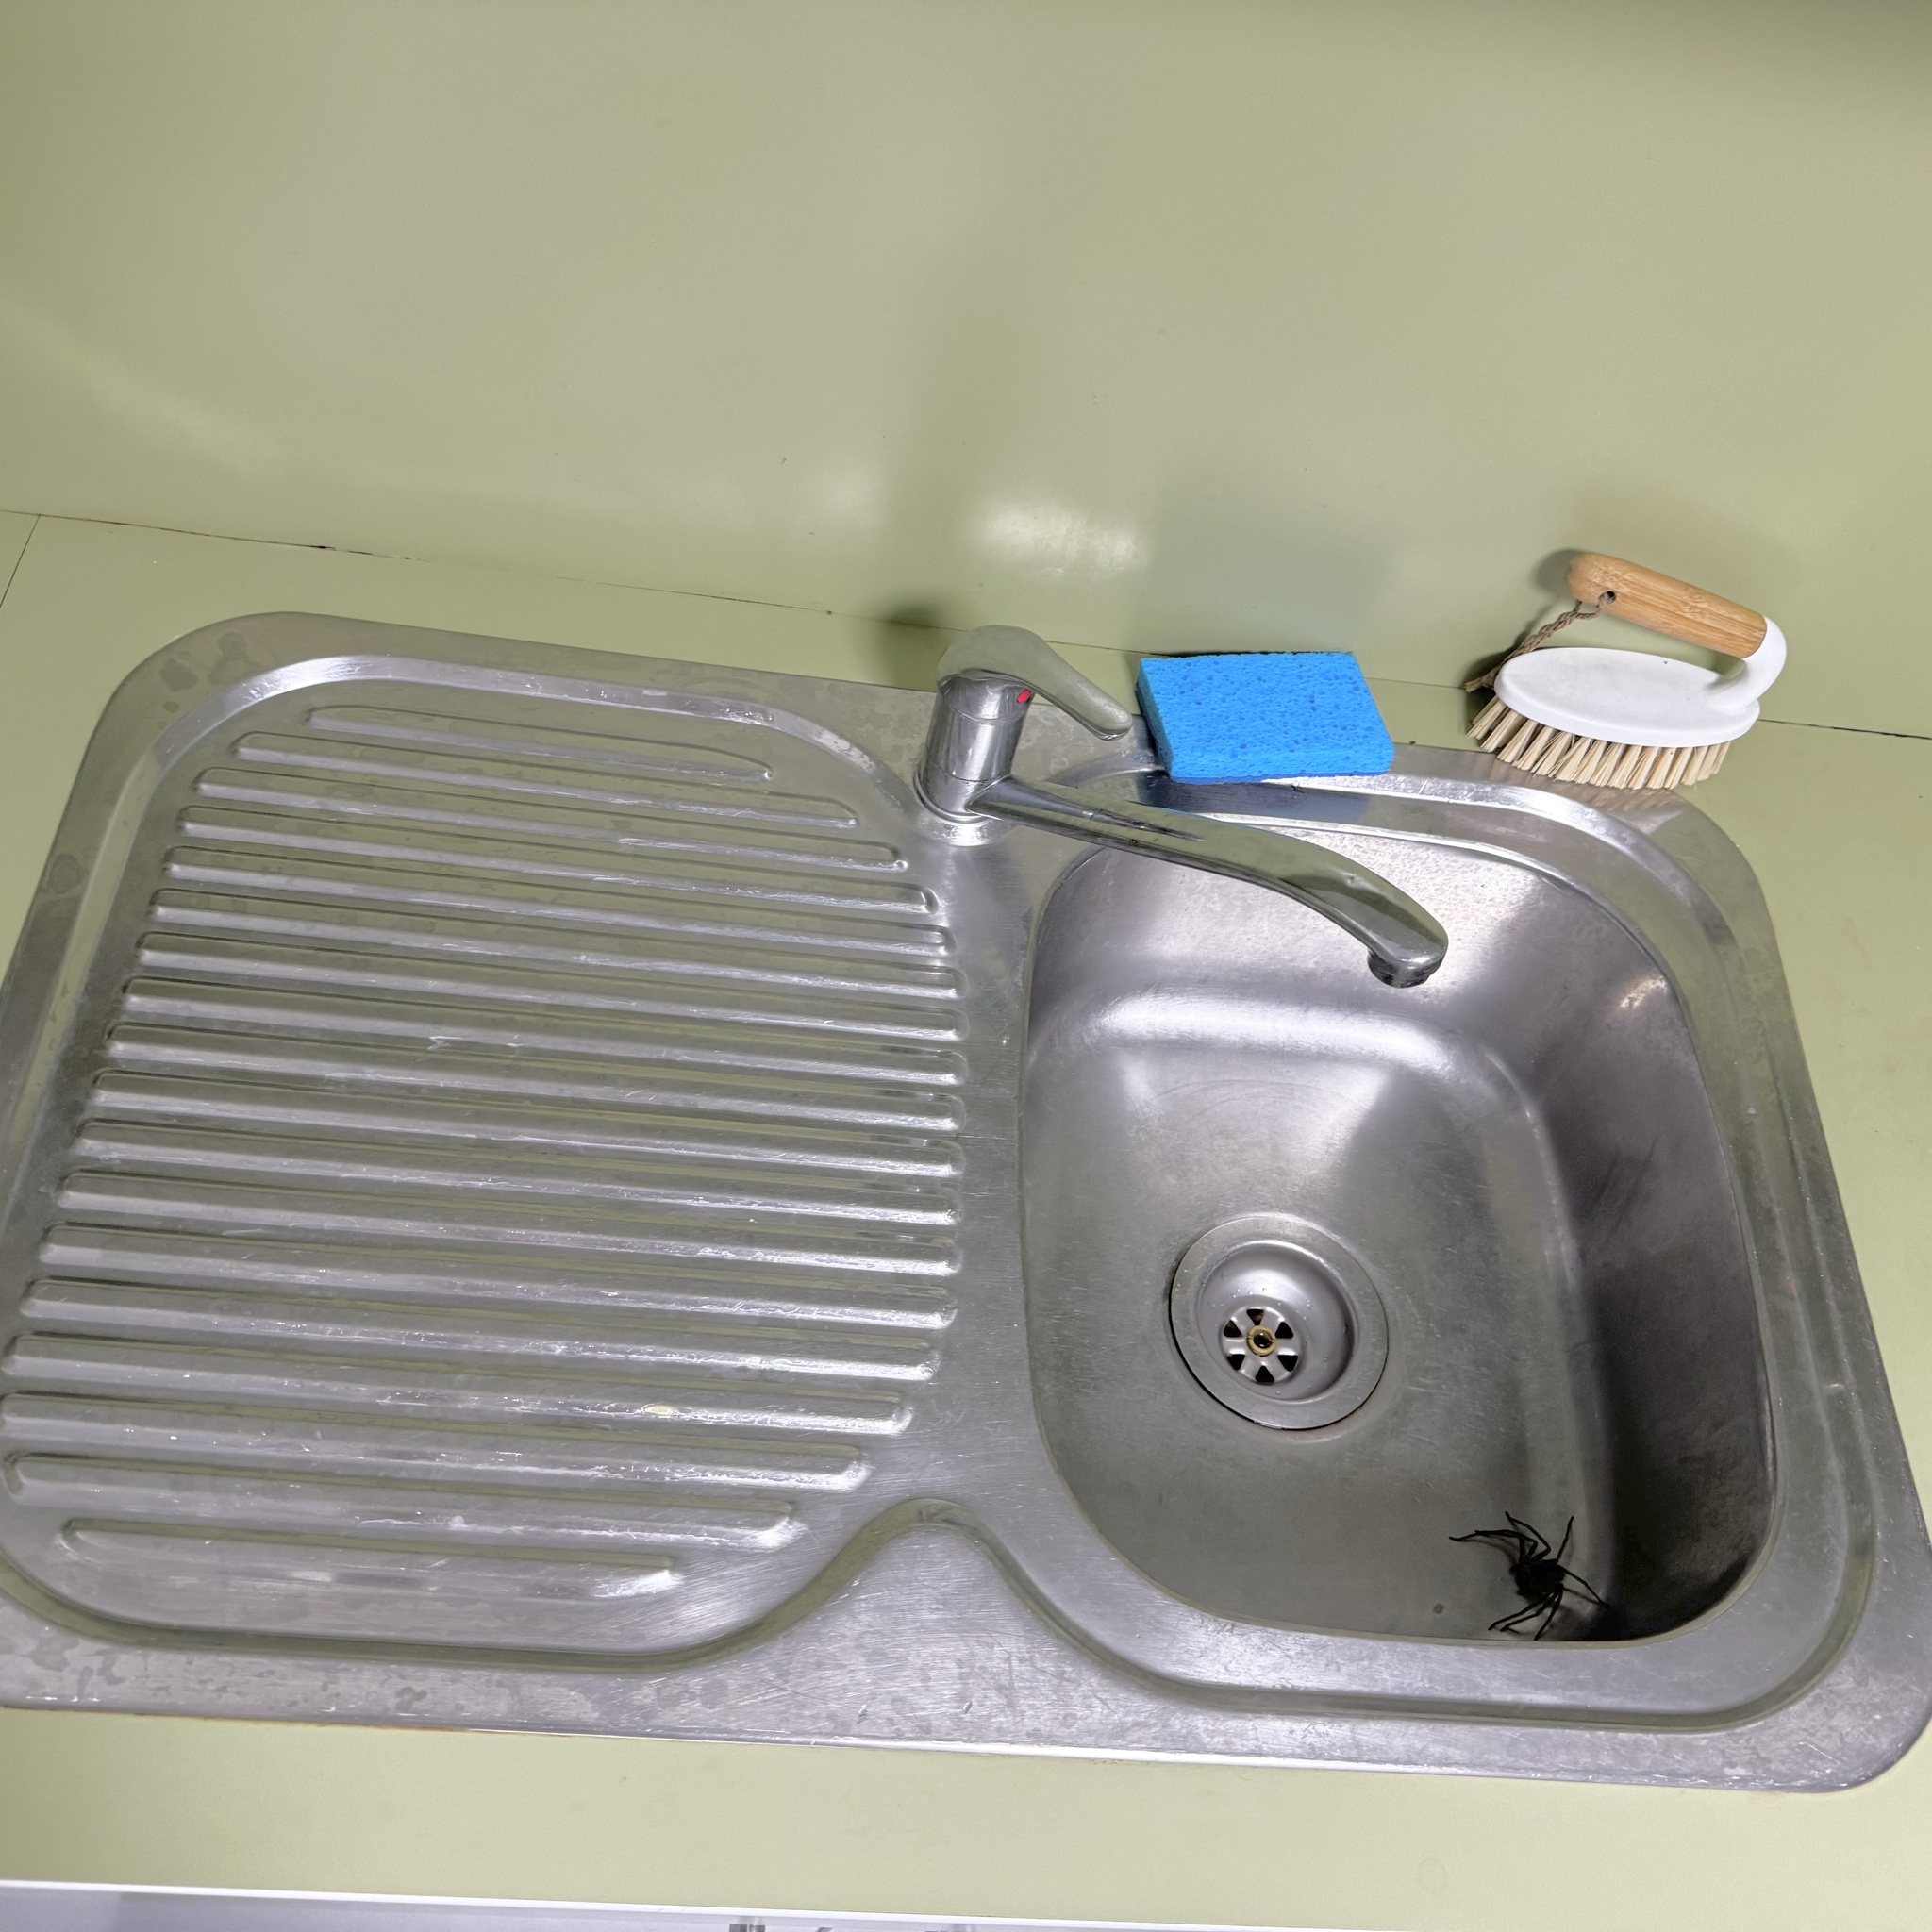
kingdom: Animalia
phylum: Arthropoda
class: Arachnida
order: Araneae
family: Sparassidae
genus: Heteropoda
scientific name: Heteropoda jugulans
